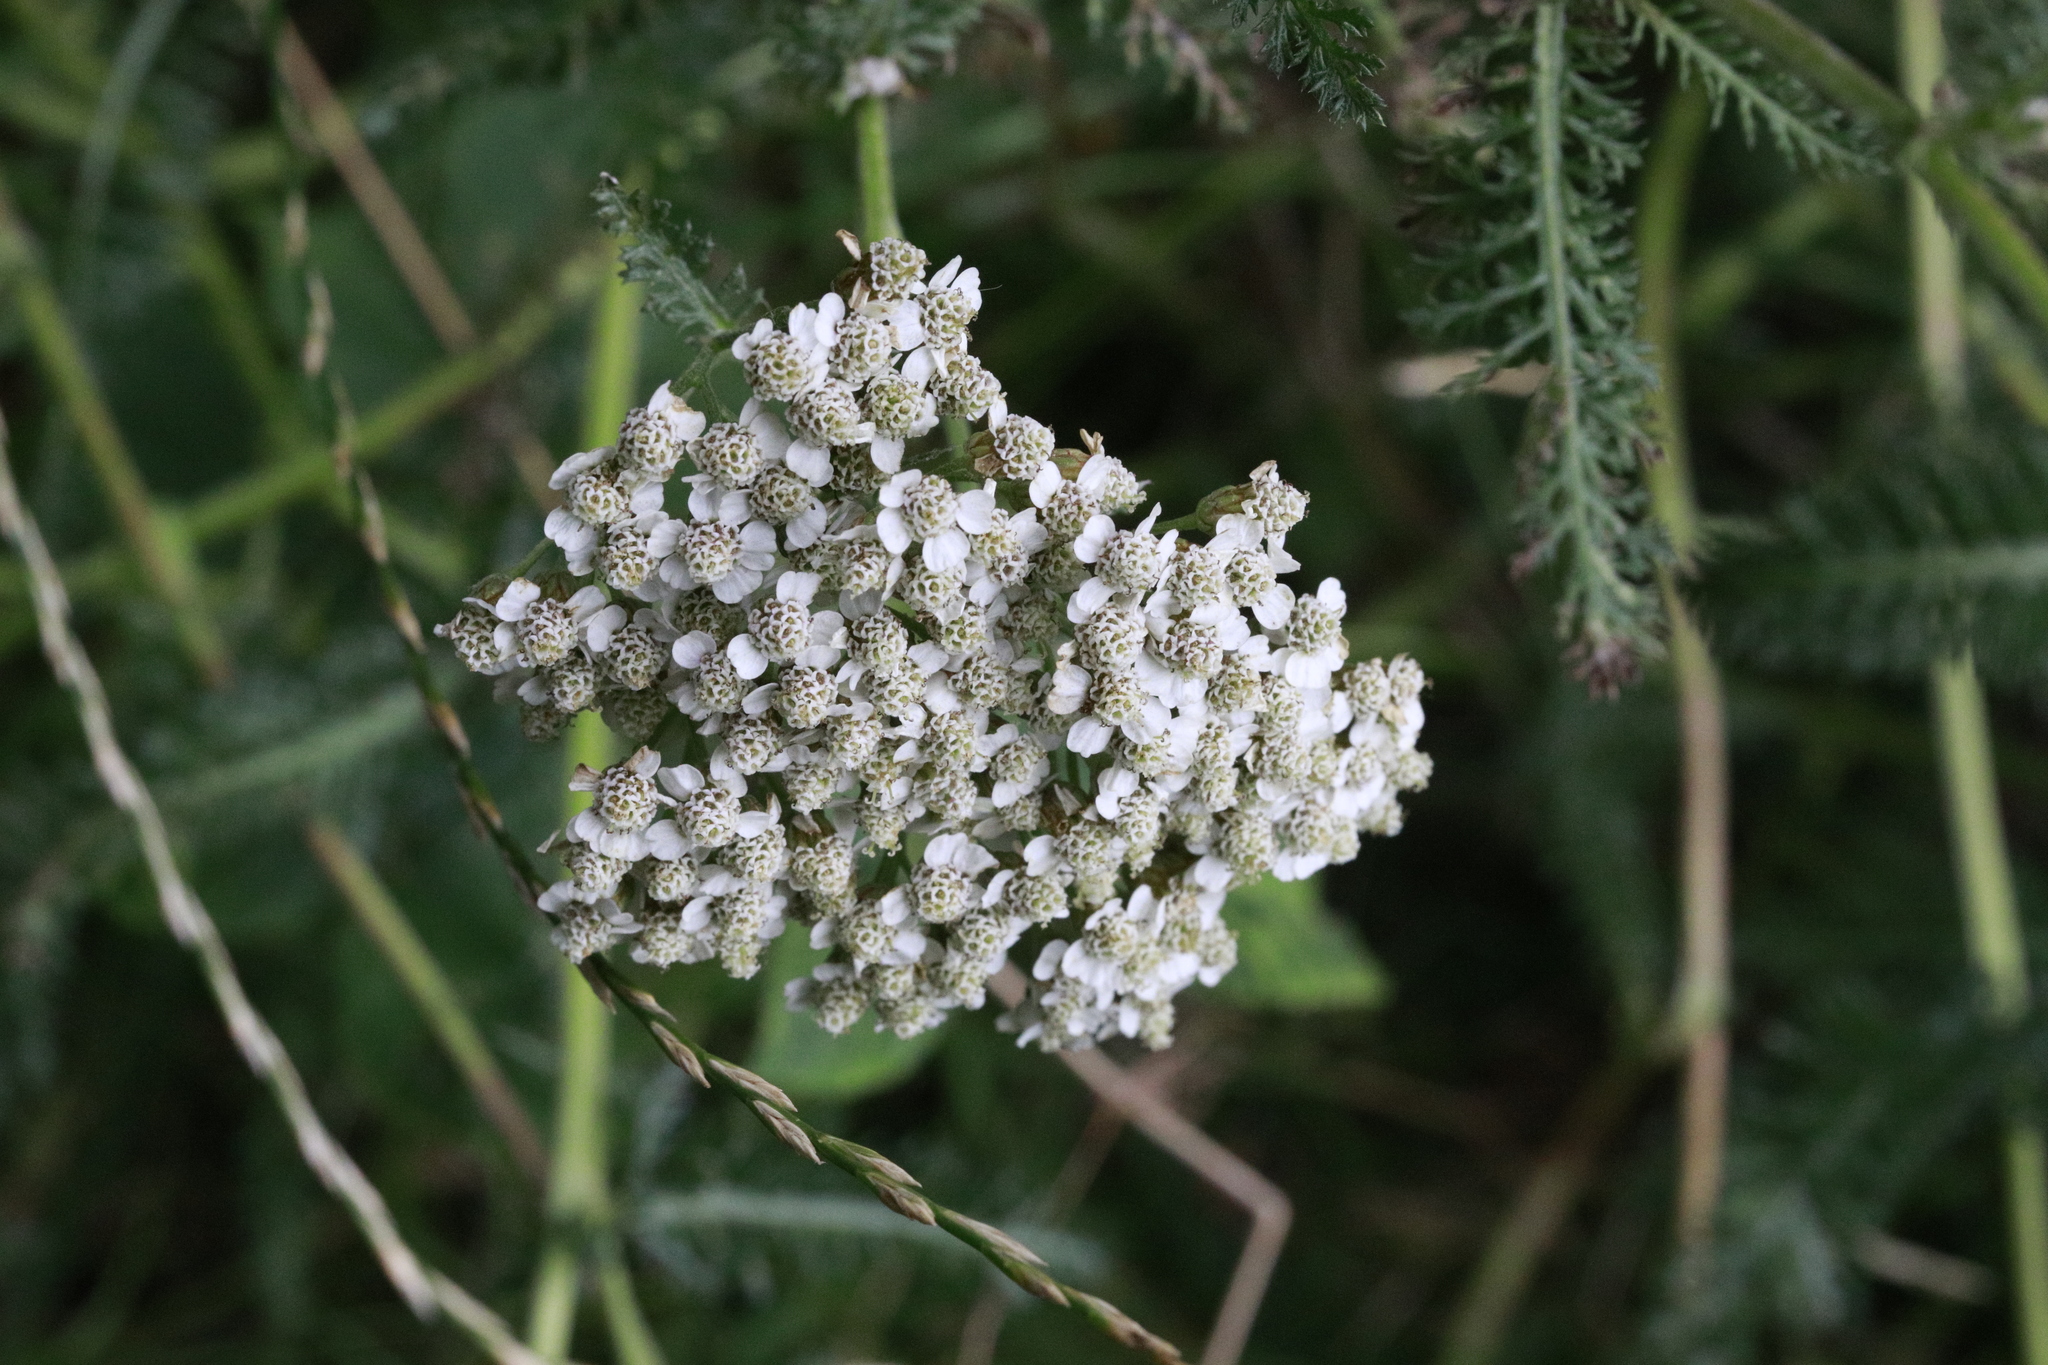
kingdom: Plantae
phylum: Tracheophyta
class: Magnoliopsida
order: Asterales
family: Asteraceae
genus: Achillea
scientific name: Achillea millefolium
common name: Yarrow
